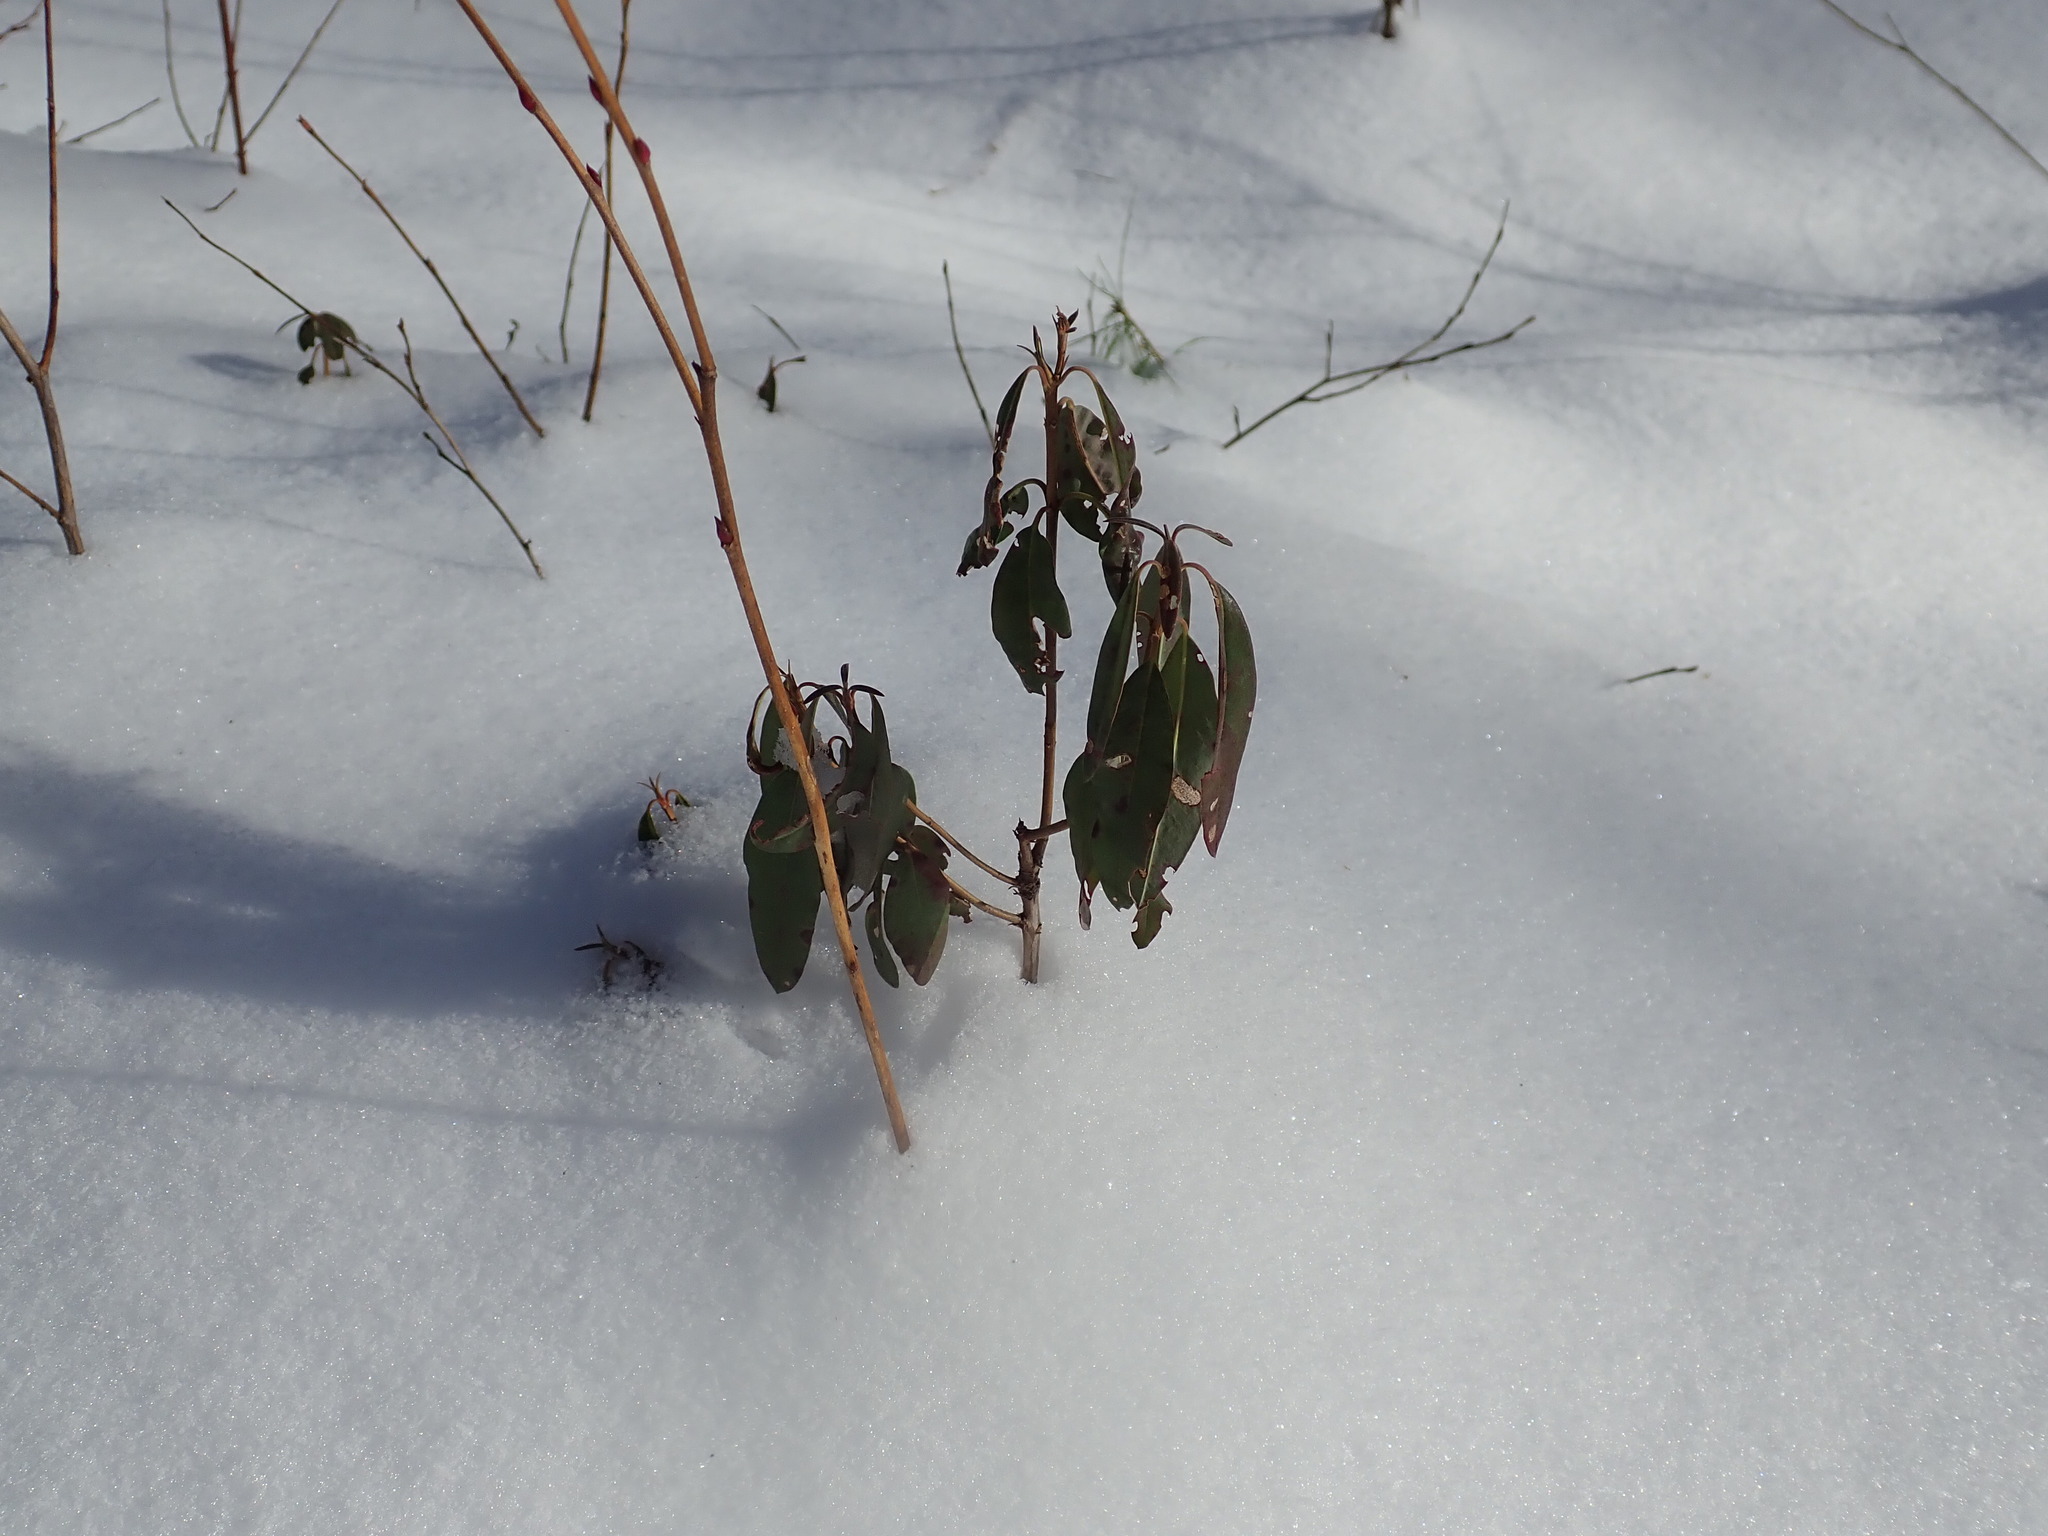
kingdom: Plantae
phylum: Tracheophyta
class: Magnoliopsida
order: Ericales
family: Ericaceae
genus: Kalmia
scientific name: Kalmia angustifolia
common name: Sheep-laurel
